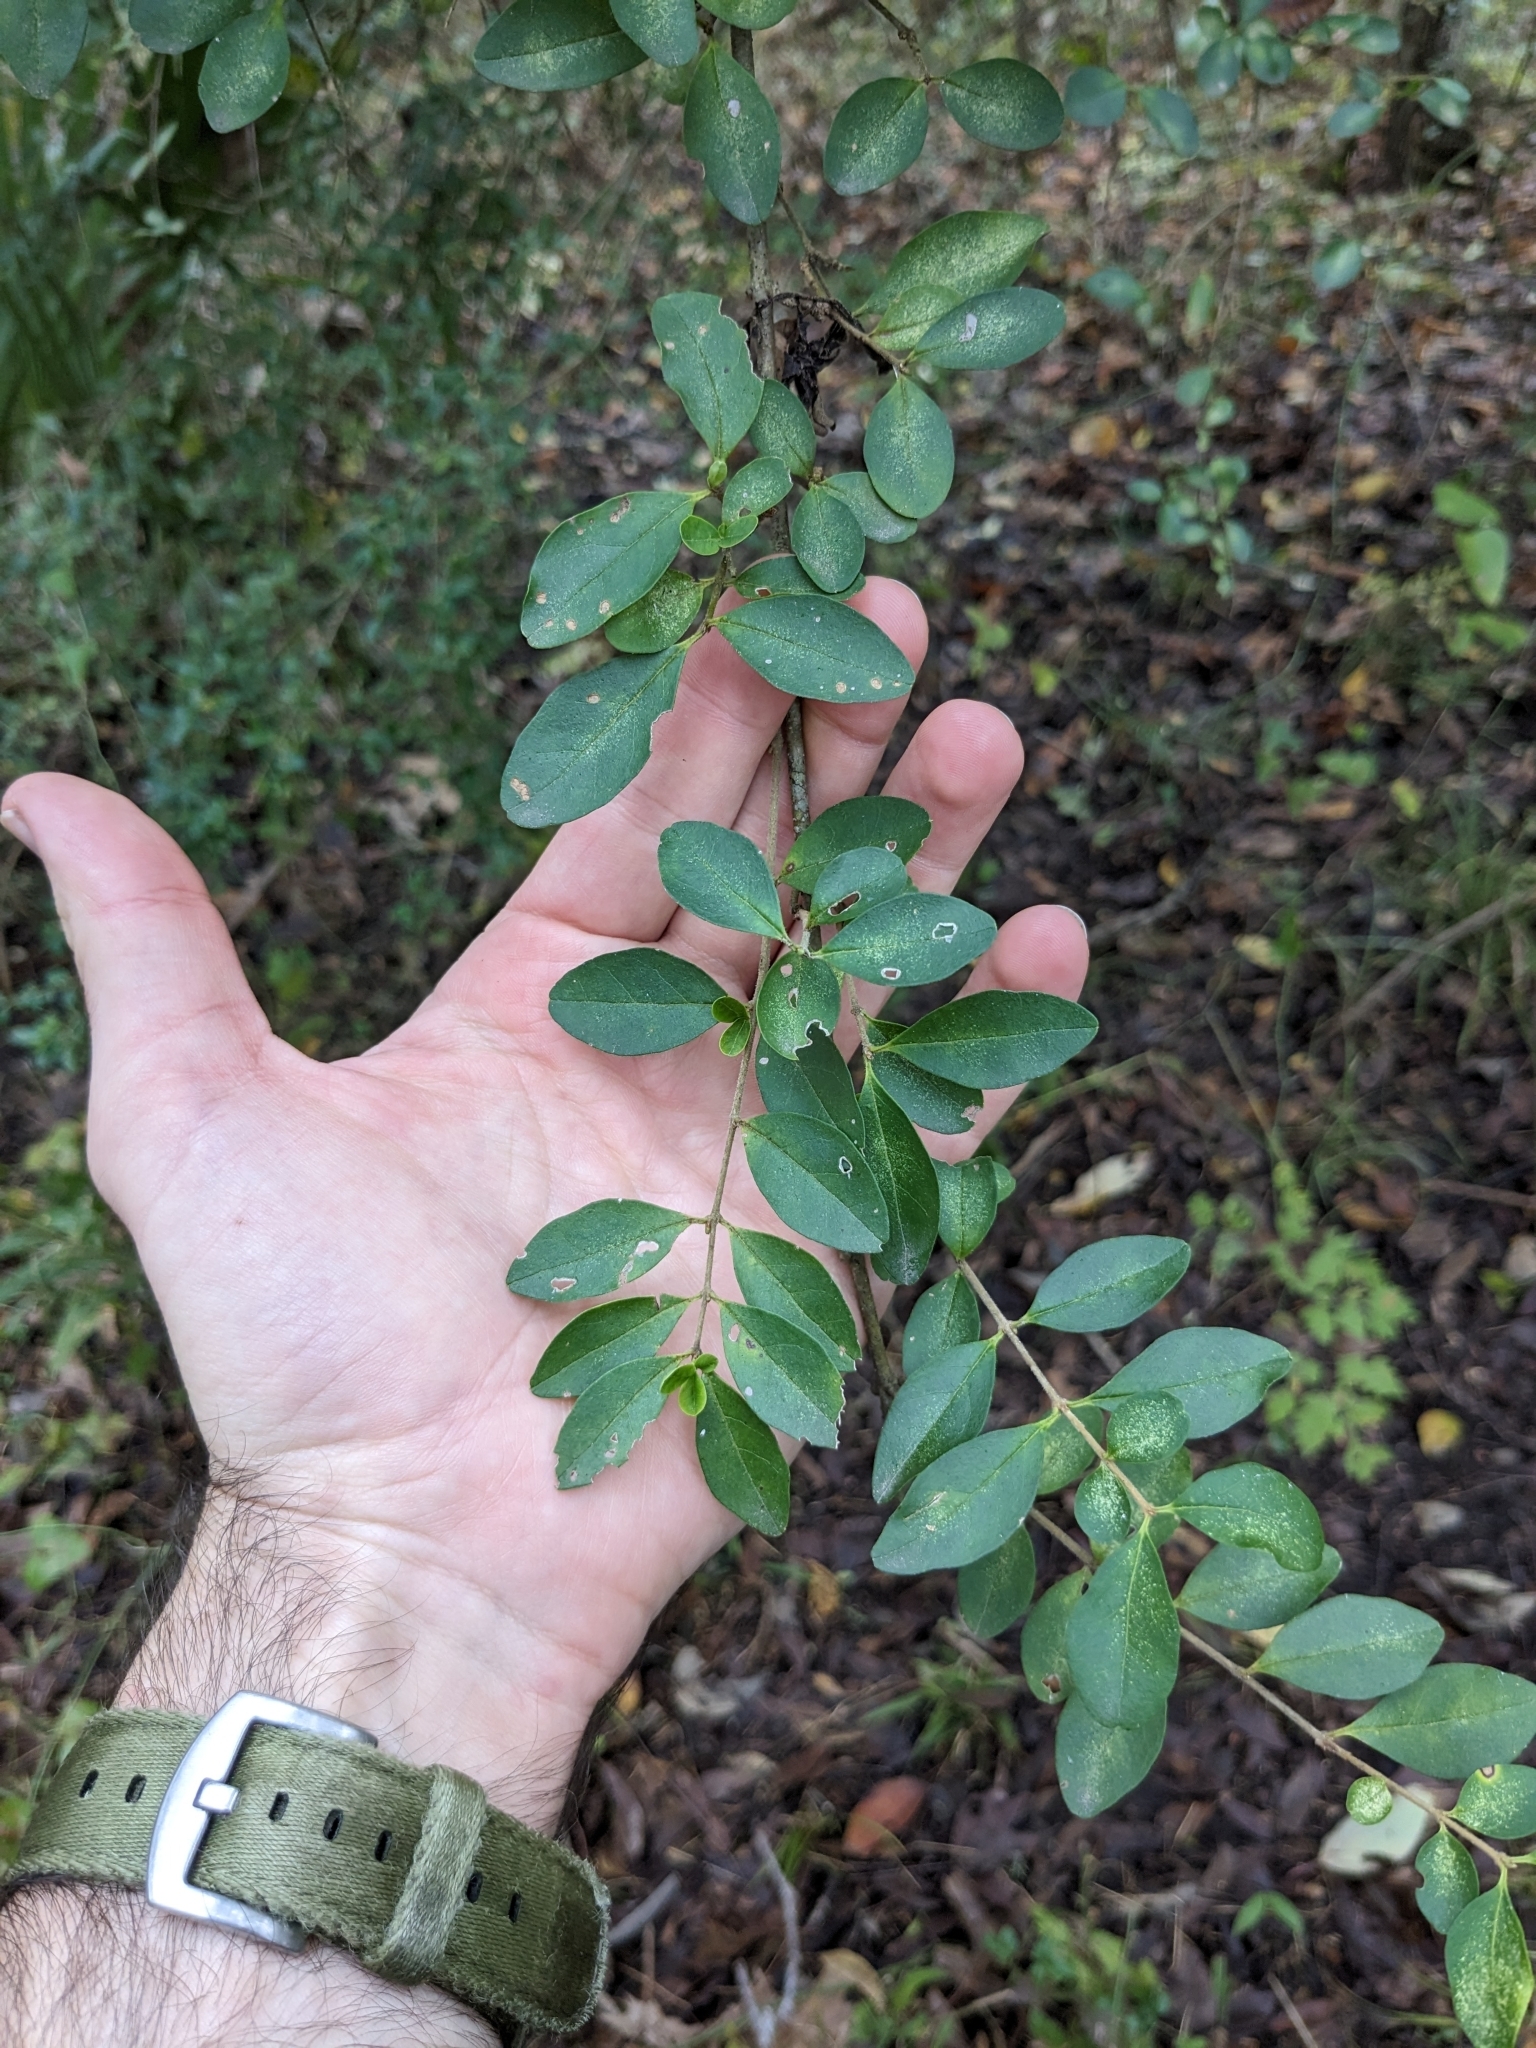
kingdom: Plantae
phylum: Tracheophyta
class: Magnoliopsida
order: Lamiales
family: Oleaceae
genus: Ligustrum
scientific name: Ligustrum sinense
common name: Chinese privet
